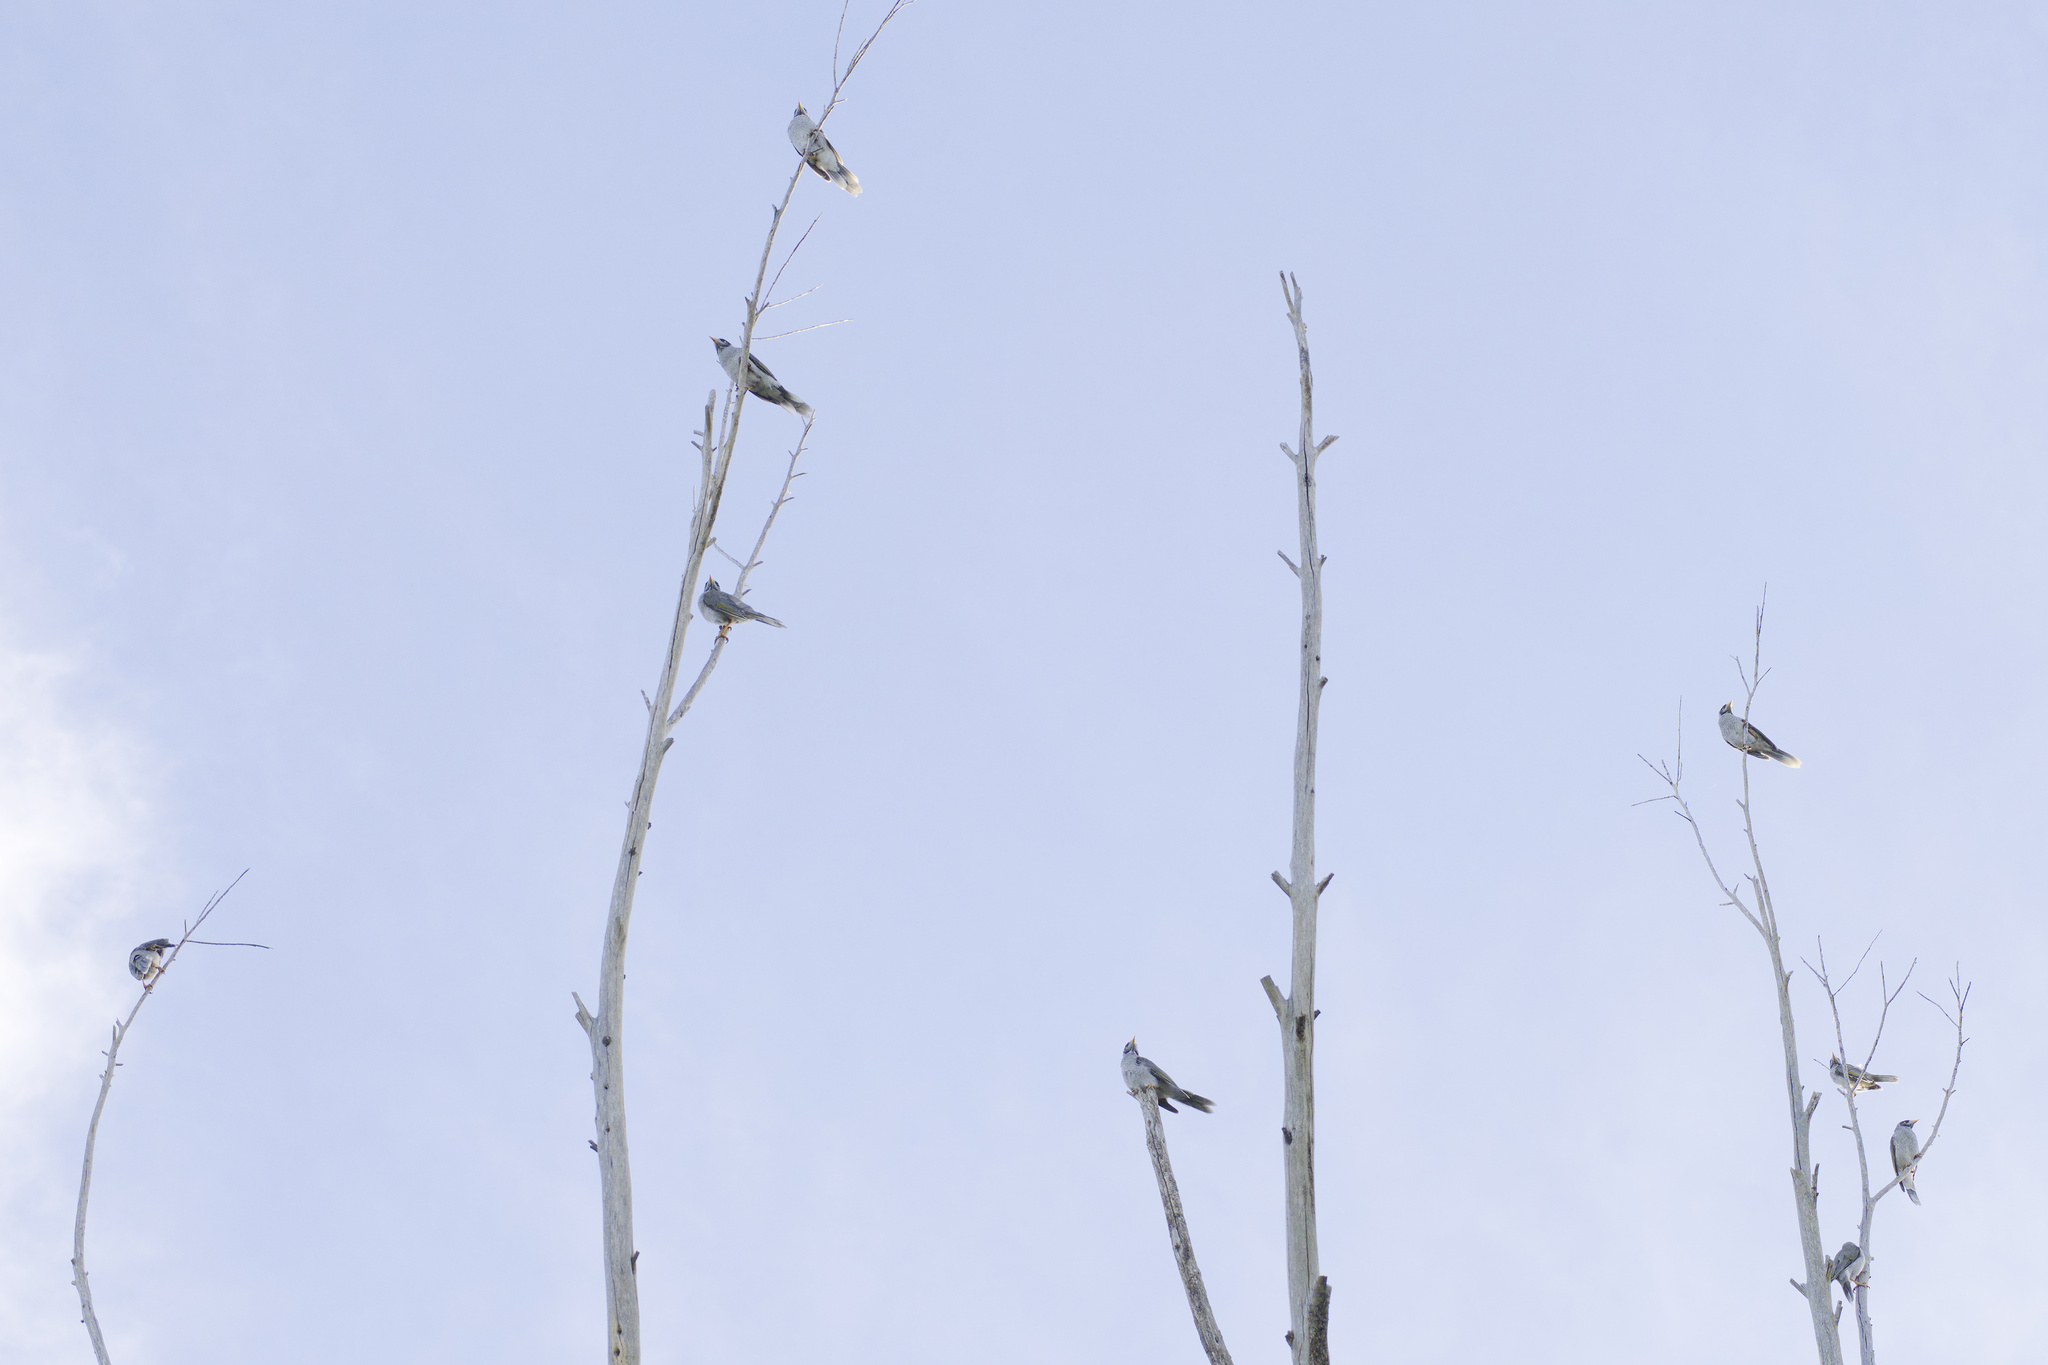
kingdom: Animalia
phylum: Chordata
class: Aves
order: Passeriformes
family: Meliphagidae
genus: Manorina
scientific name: Manorina melanocephala
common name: Noisy miner
